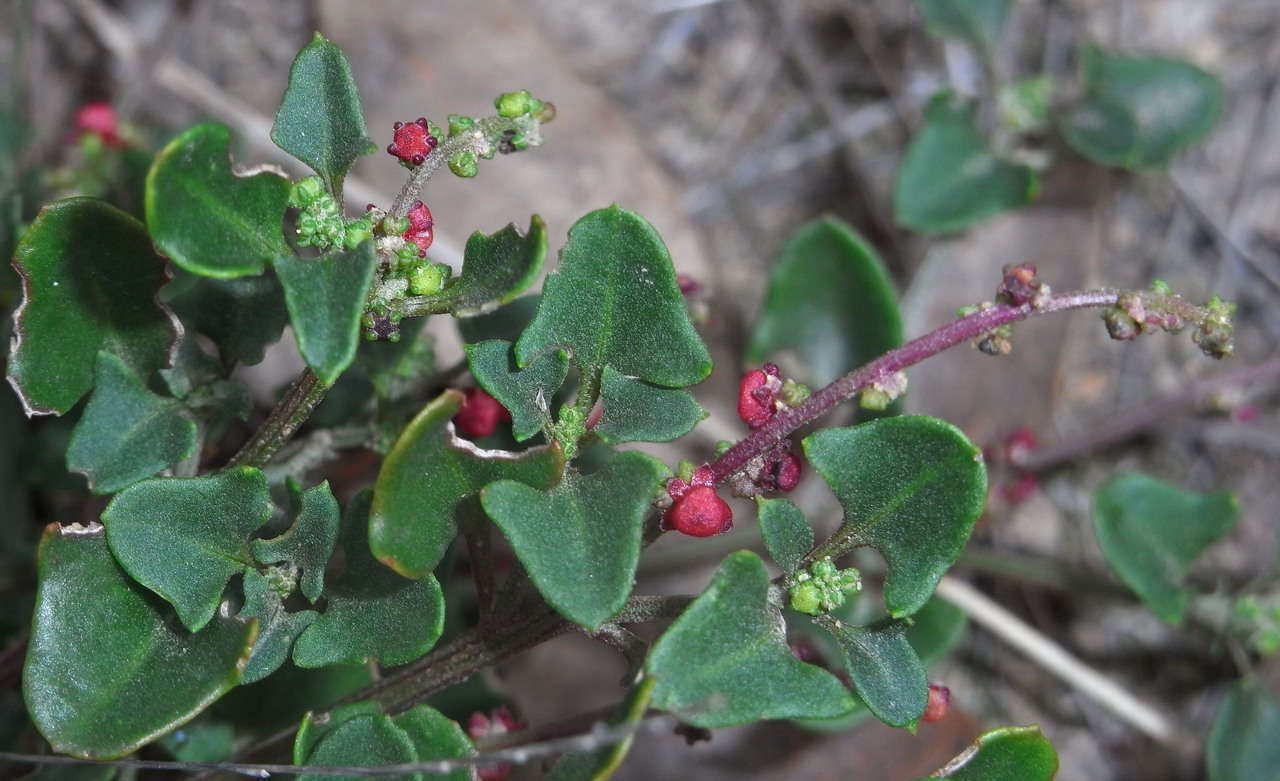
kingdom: Plantae
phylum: Tracheophyta
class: Magnoliopsida
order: Caryophyllales
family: Amaranthaceae
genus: Chenopodium
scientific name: Chenopodium robertianum
